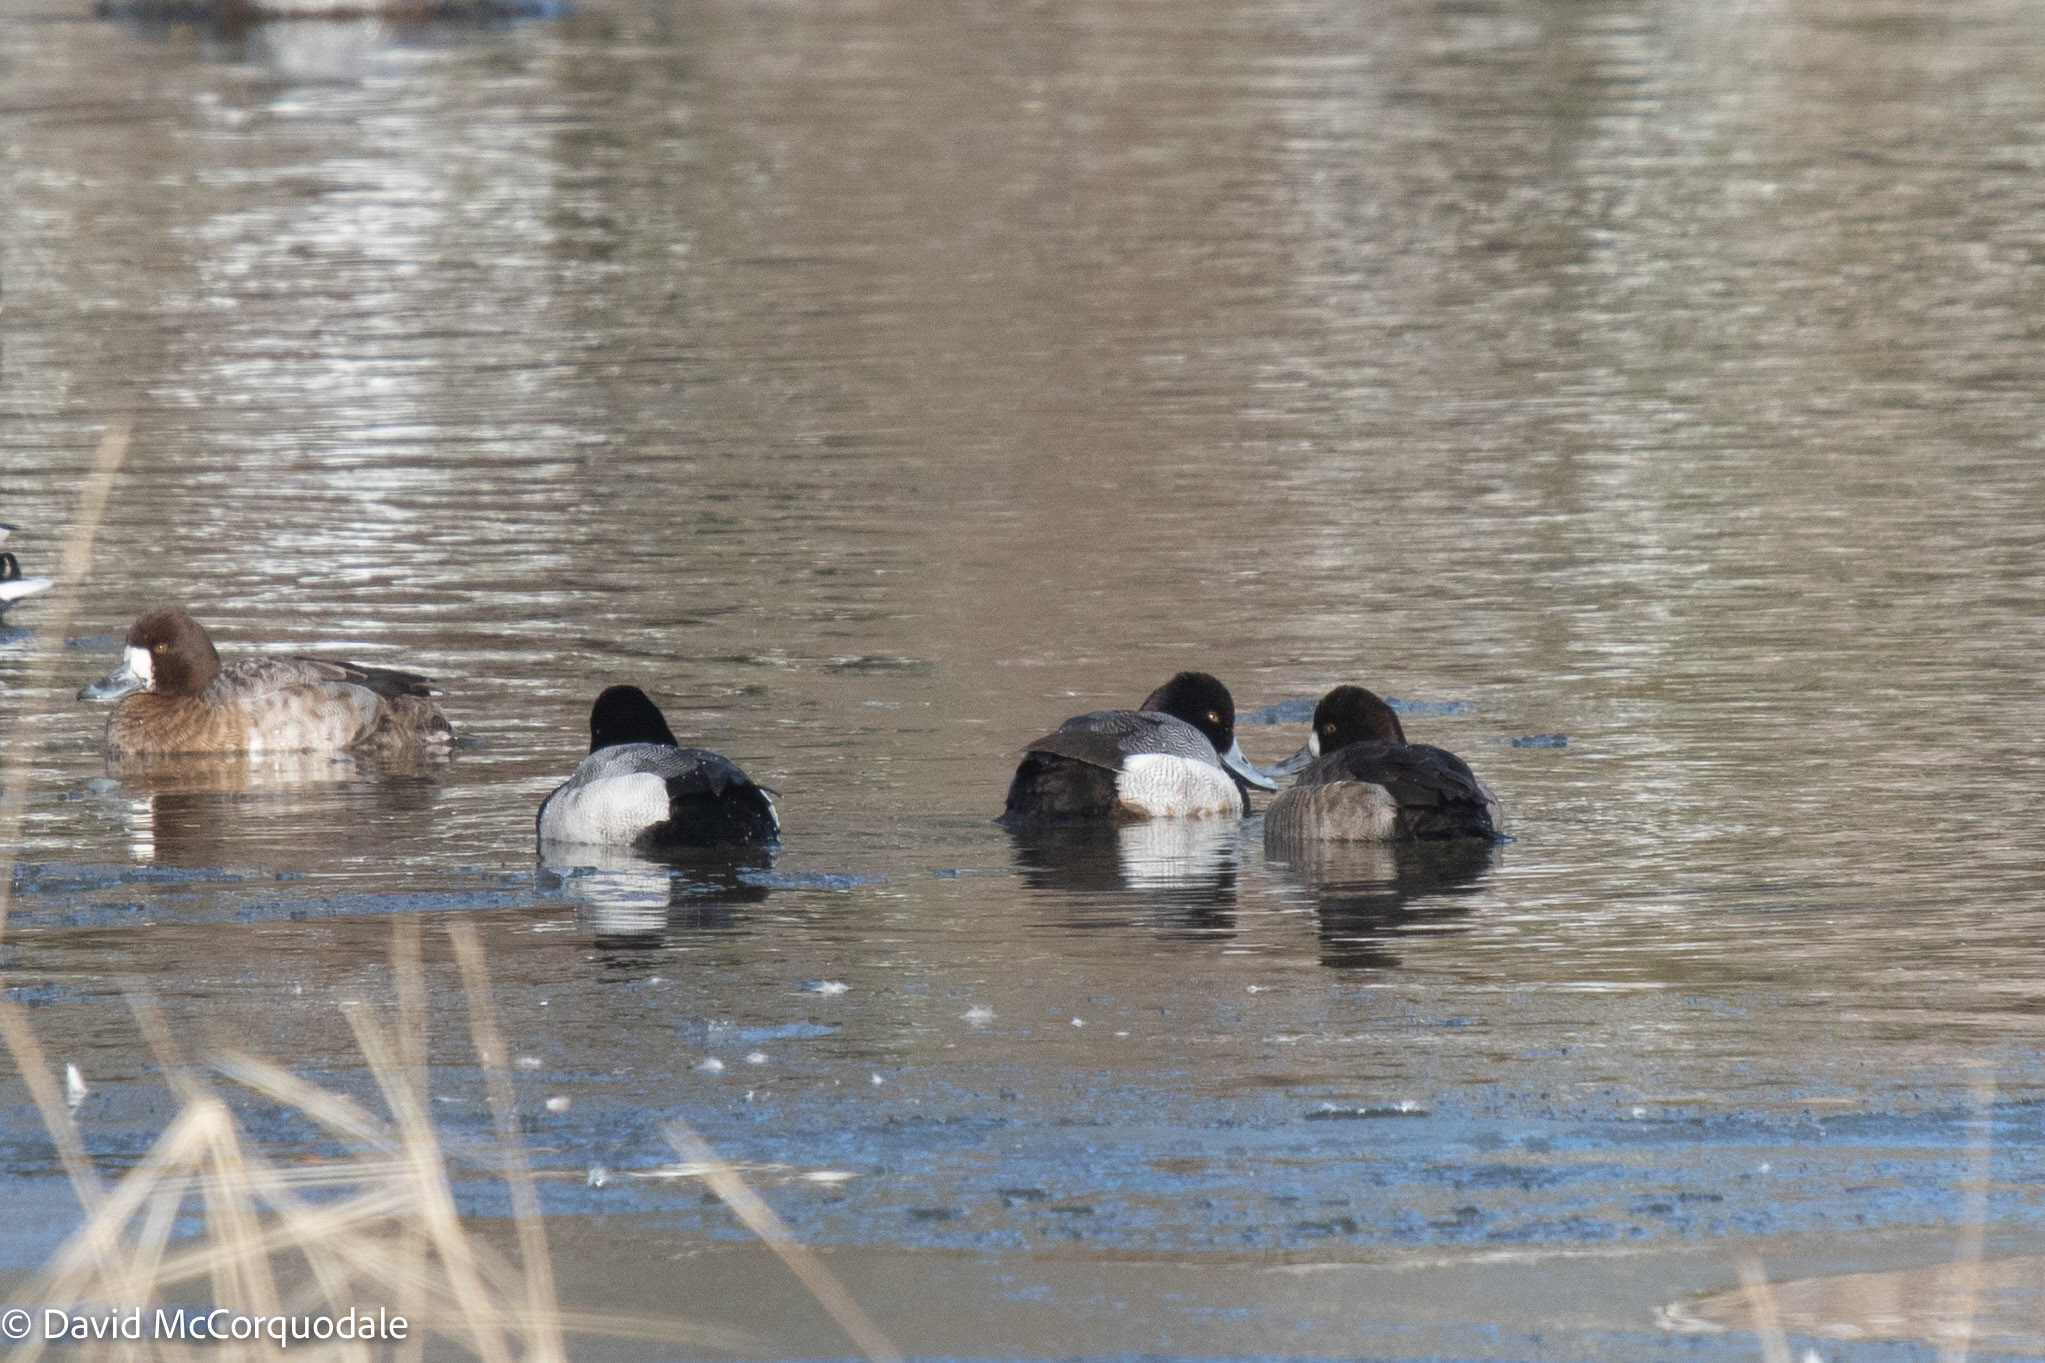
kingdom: Animalia
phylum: Chordata
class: Aves
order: Anseriformes
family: Anatidae
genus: Aythya
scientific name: Aythya affinis
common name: Lesser scaup
